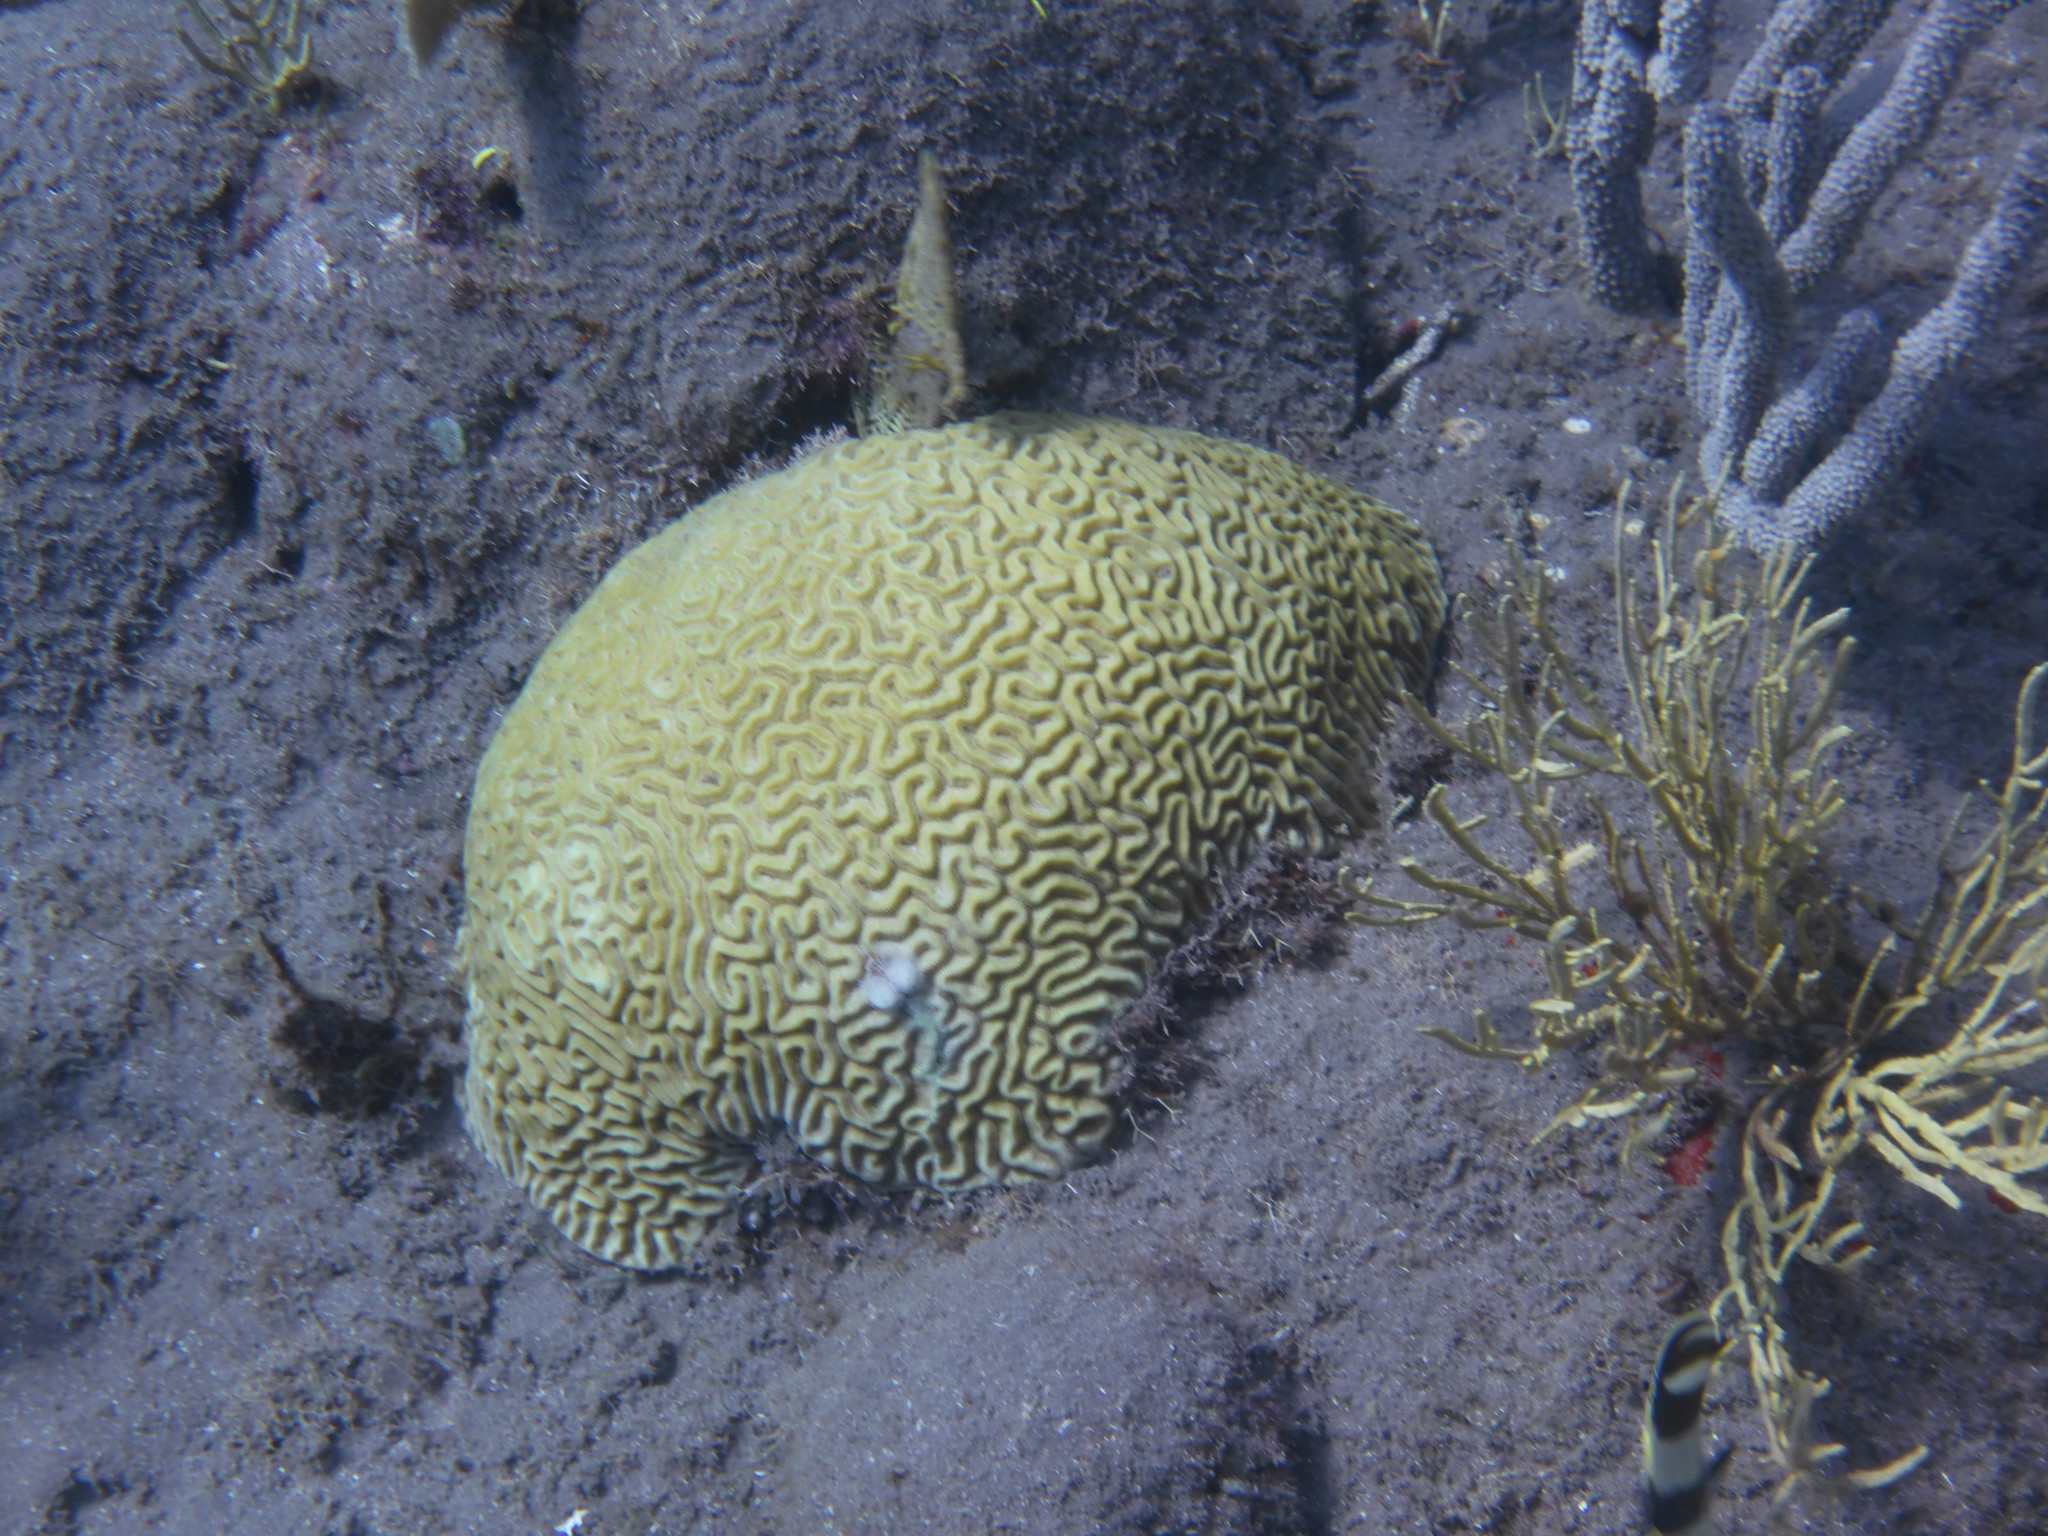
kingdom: Animalia
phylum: Cnidaria
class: Anthozoa
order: Scleractinia
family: Faviidae
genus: Pseudodiploria
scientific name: Pseudodiploria strigosa
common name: Symmetrical brain coral
